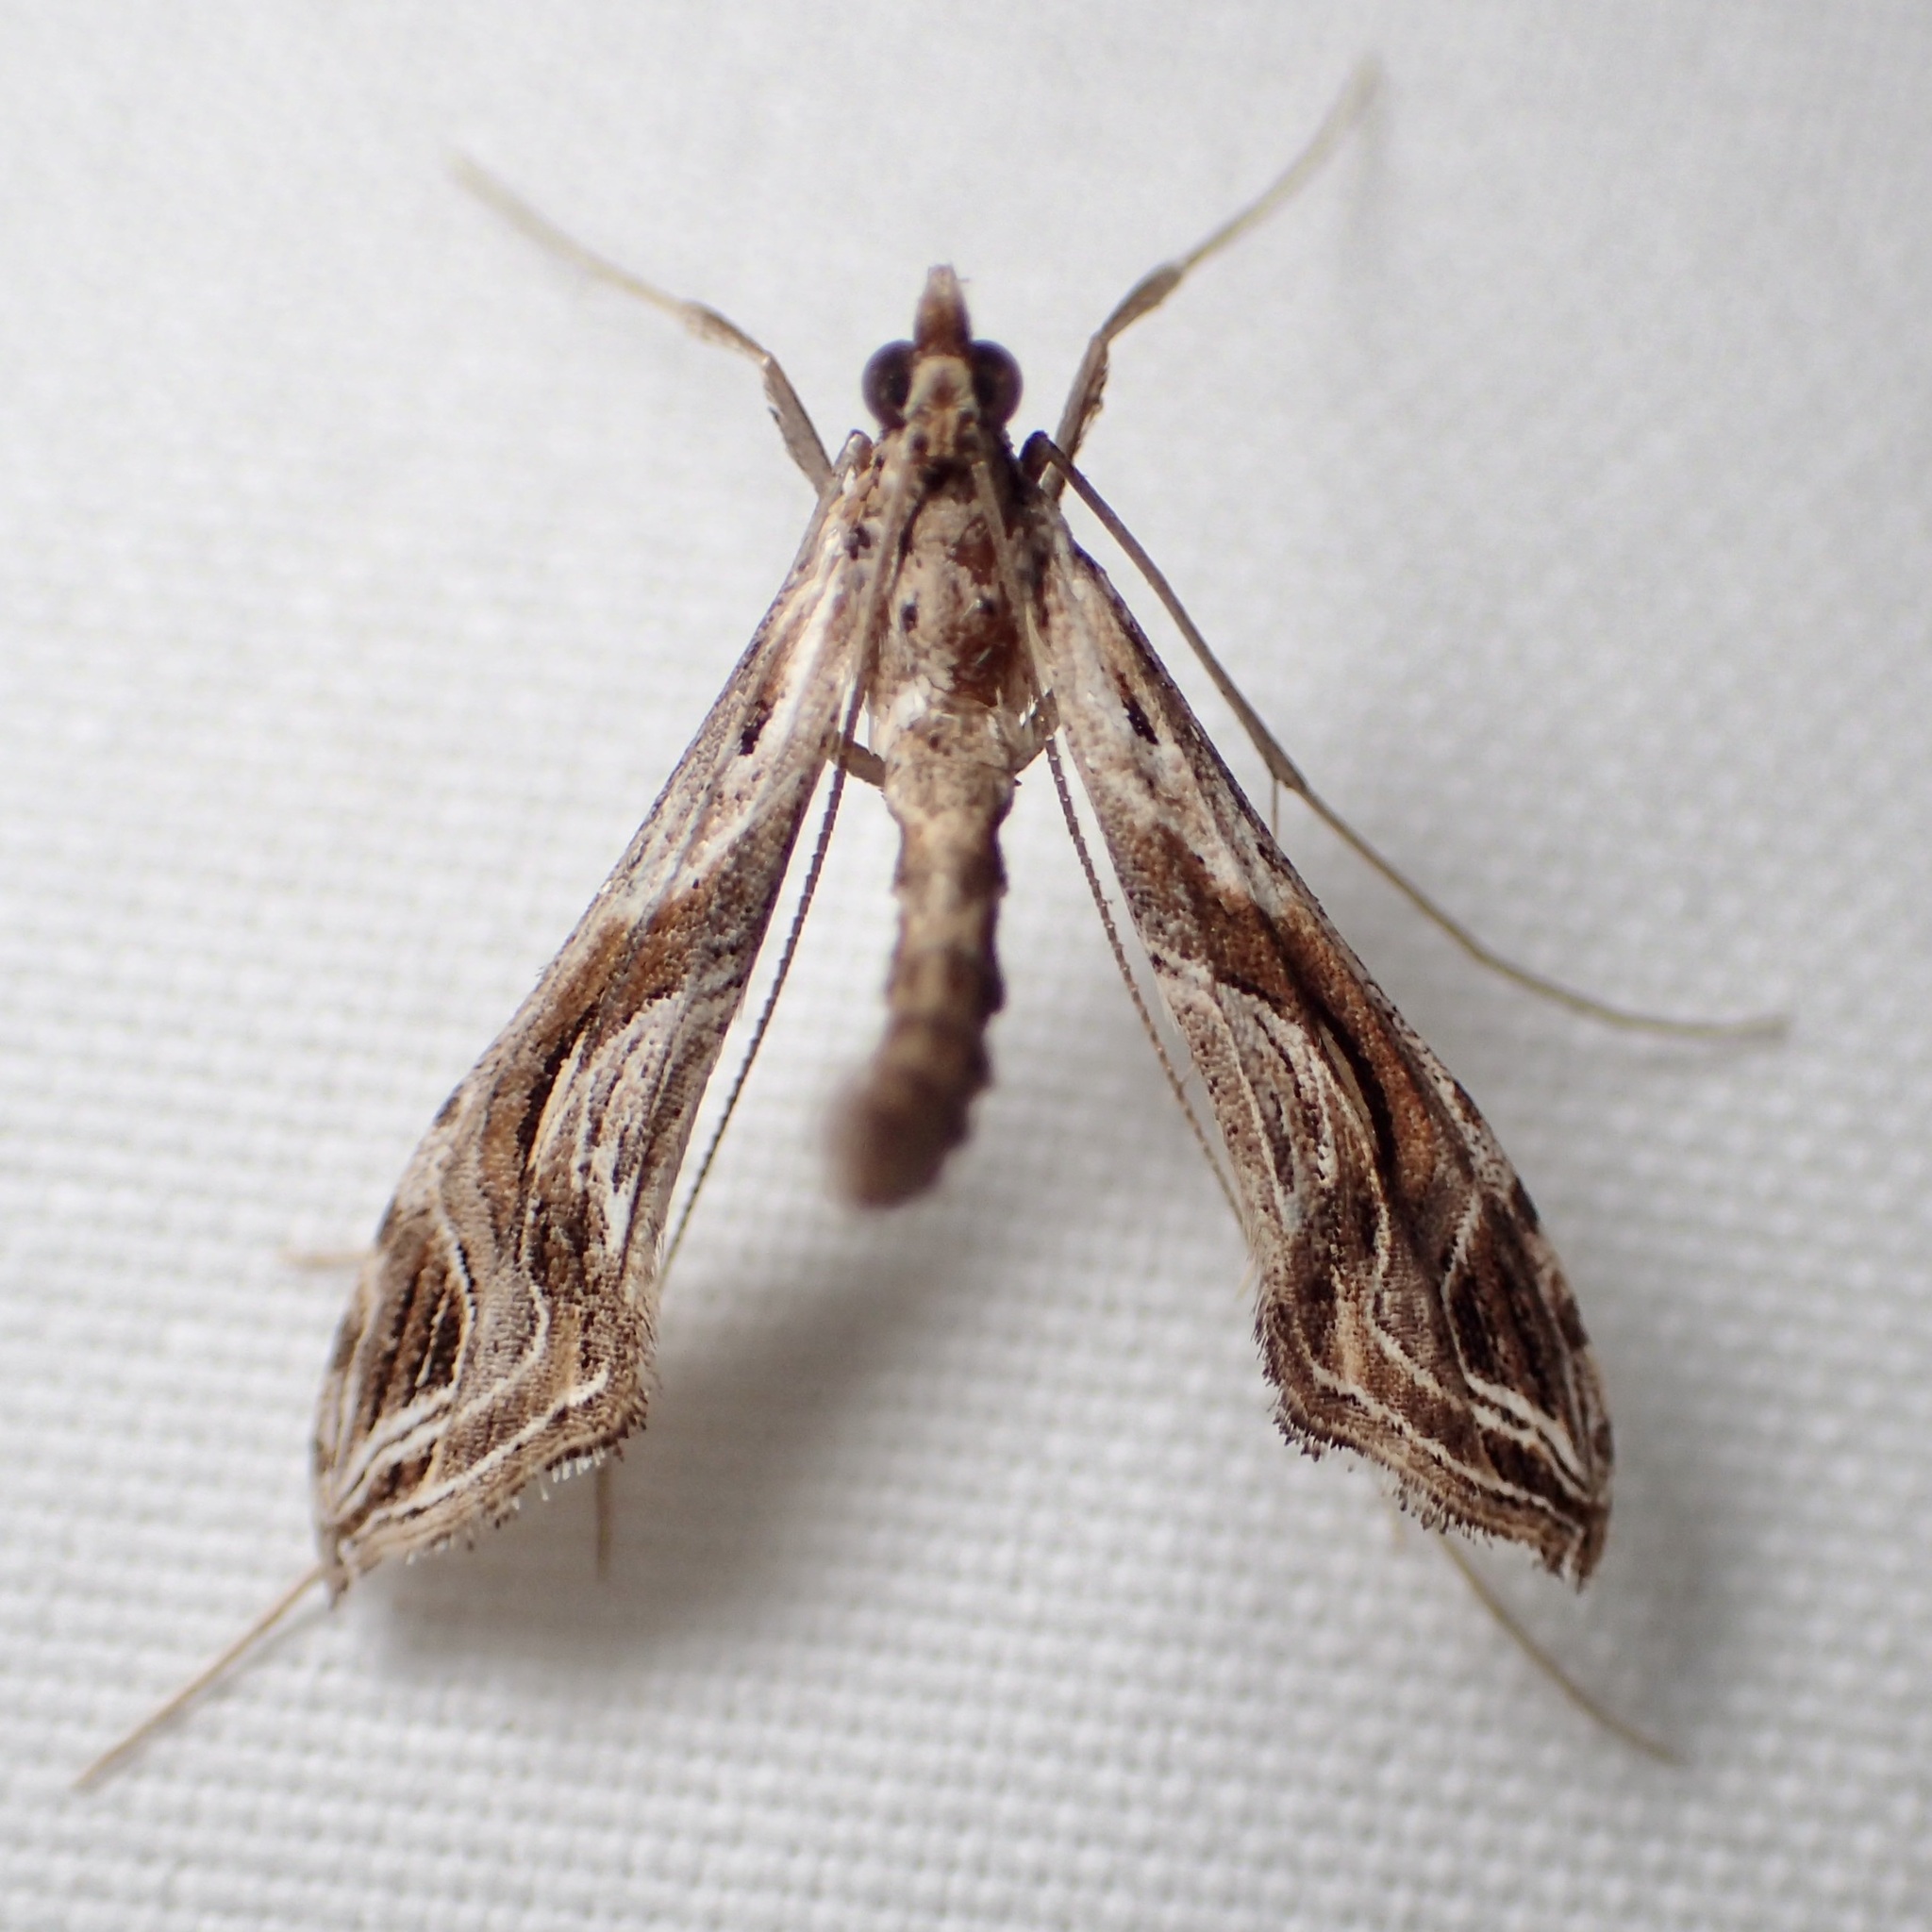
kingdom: Animalia
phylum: Arthropoda
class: Insecta
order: Lepidoptera
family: Crambidae
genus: Lineodes
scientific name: Lineodes integra
